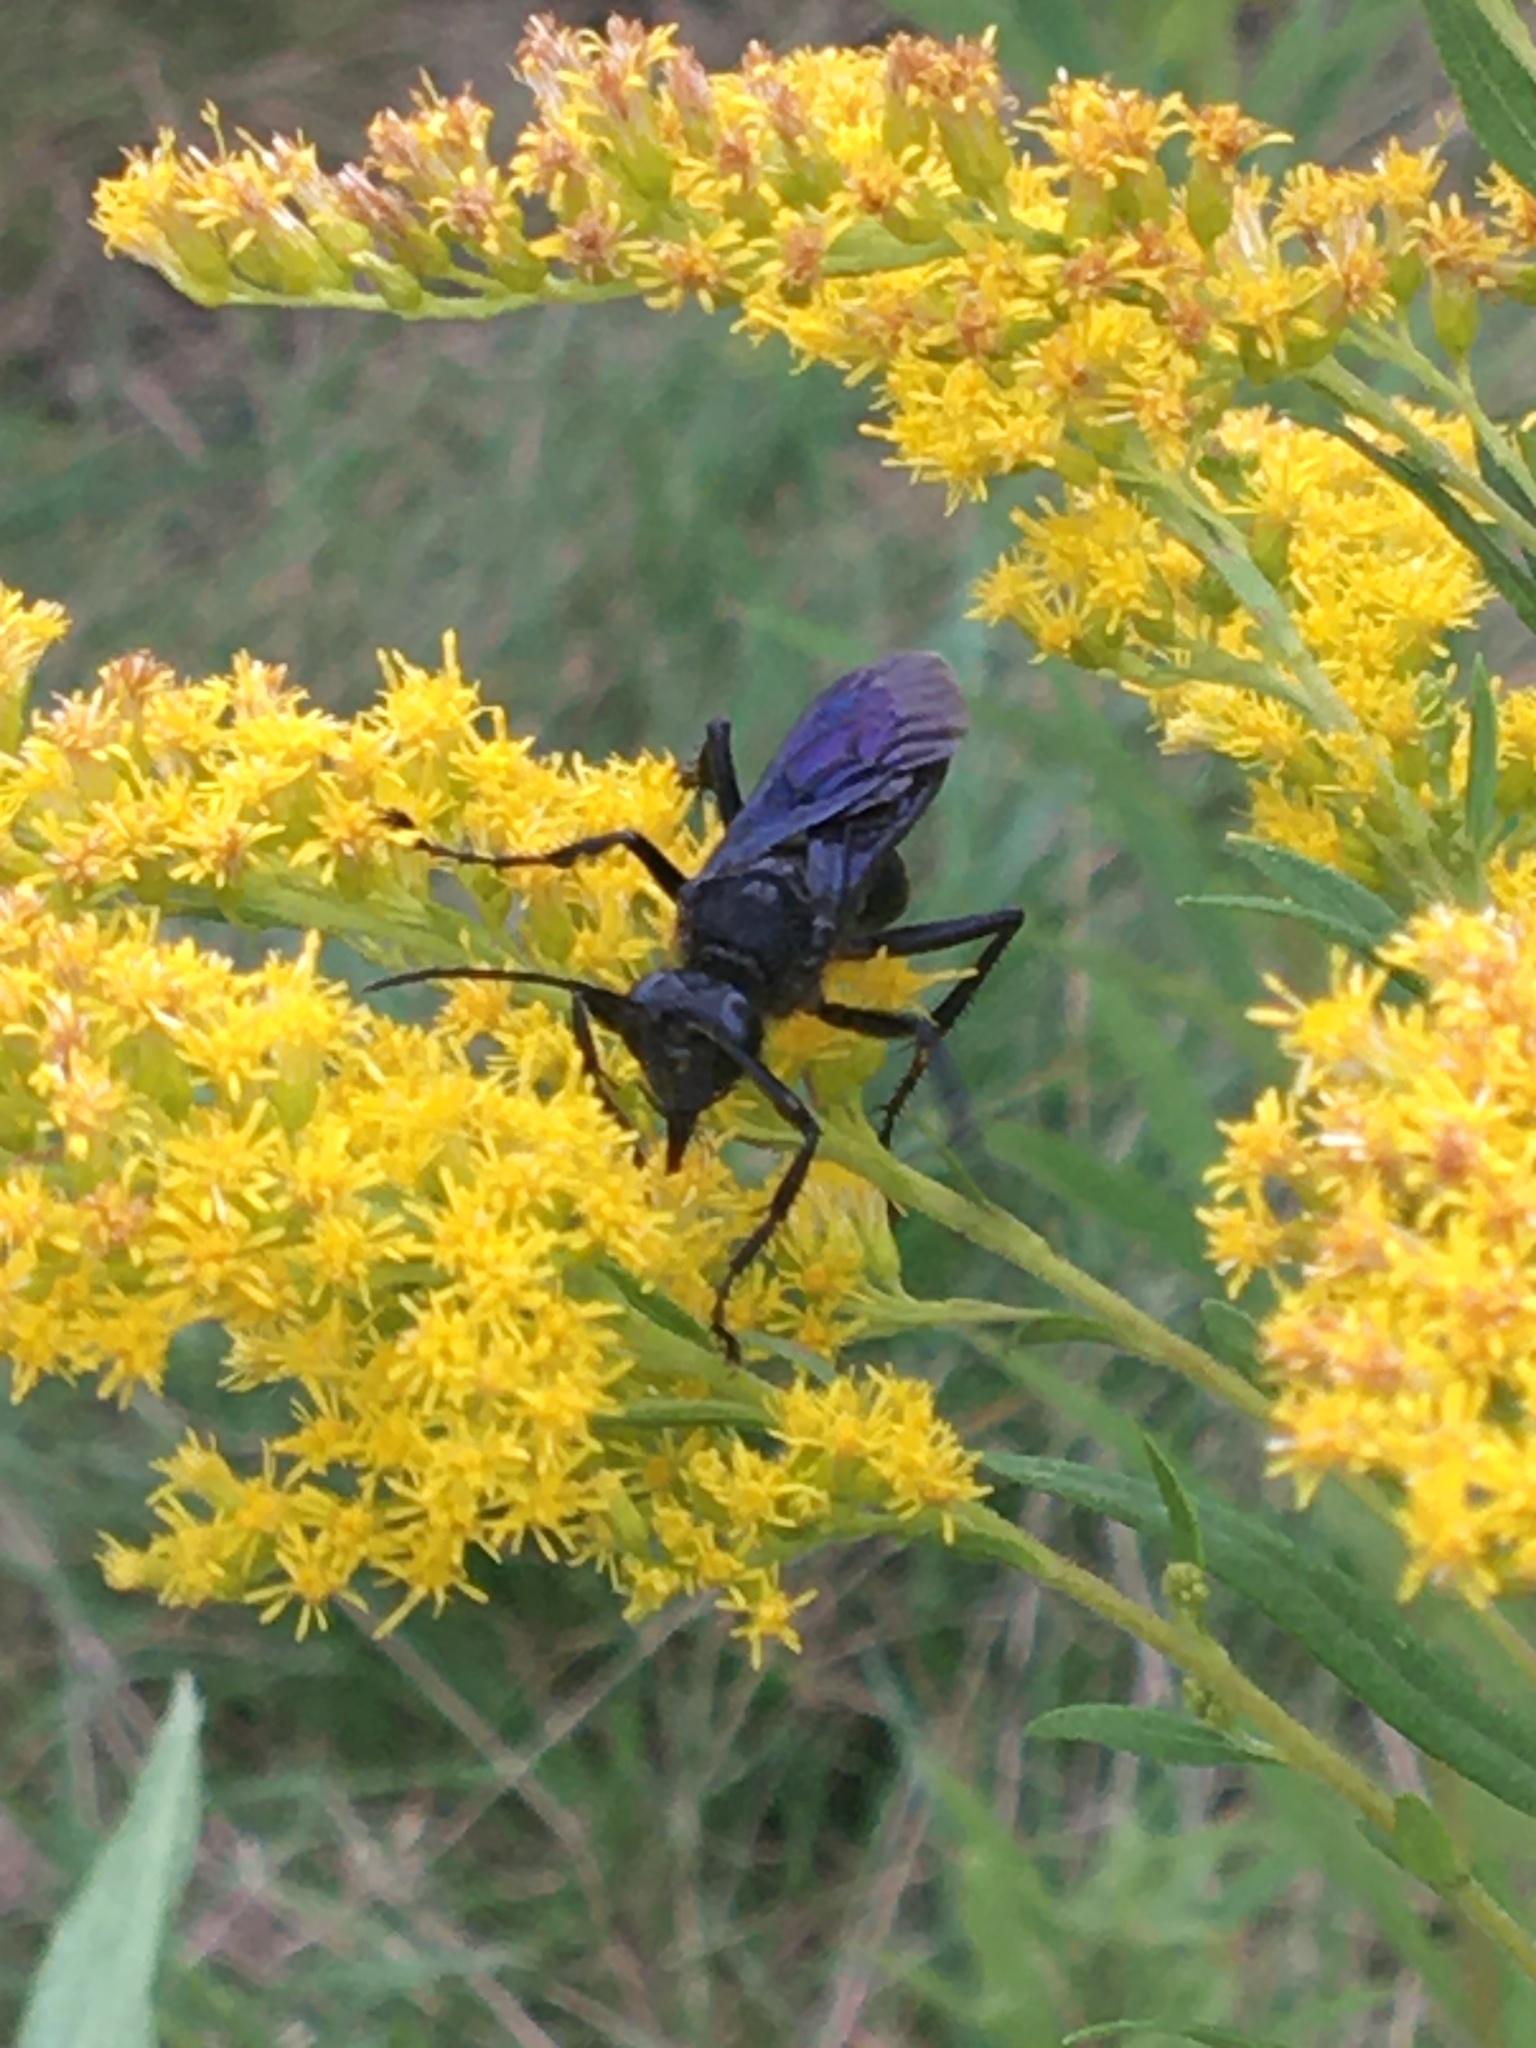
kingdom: Animalia
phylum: Arthropoda
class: Insecta
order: Hymenoptera
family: Sphecidae
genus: Sphex
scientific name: Sphex pensylvanicus
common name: Great black digger wasp
